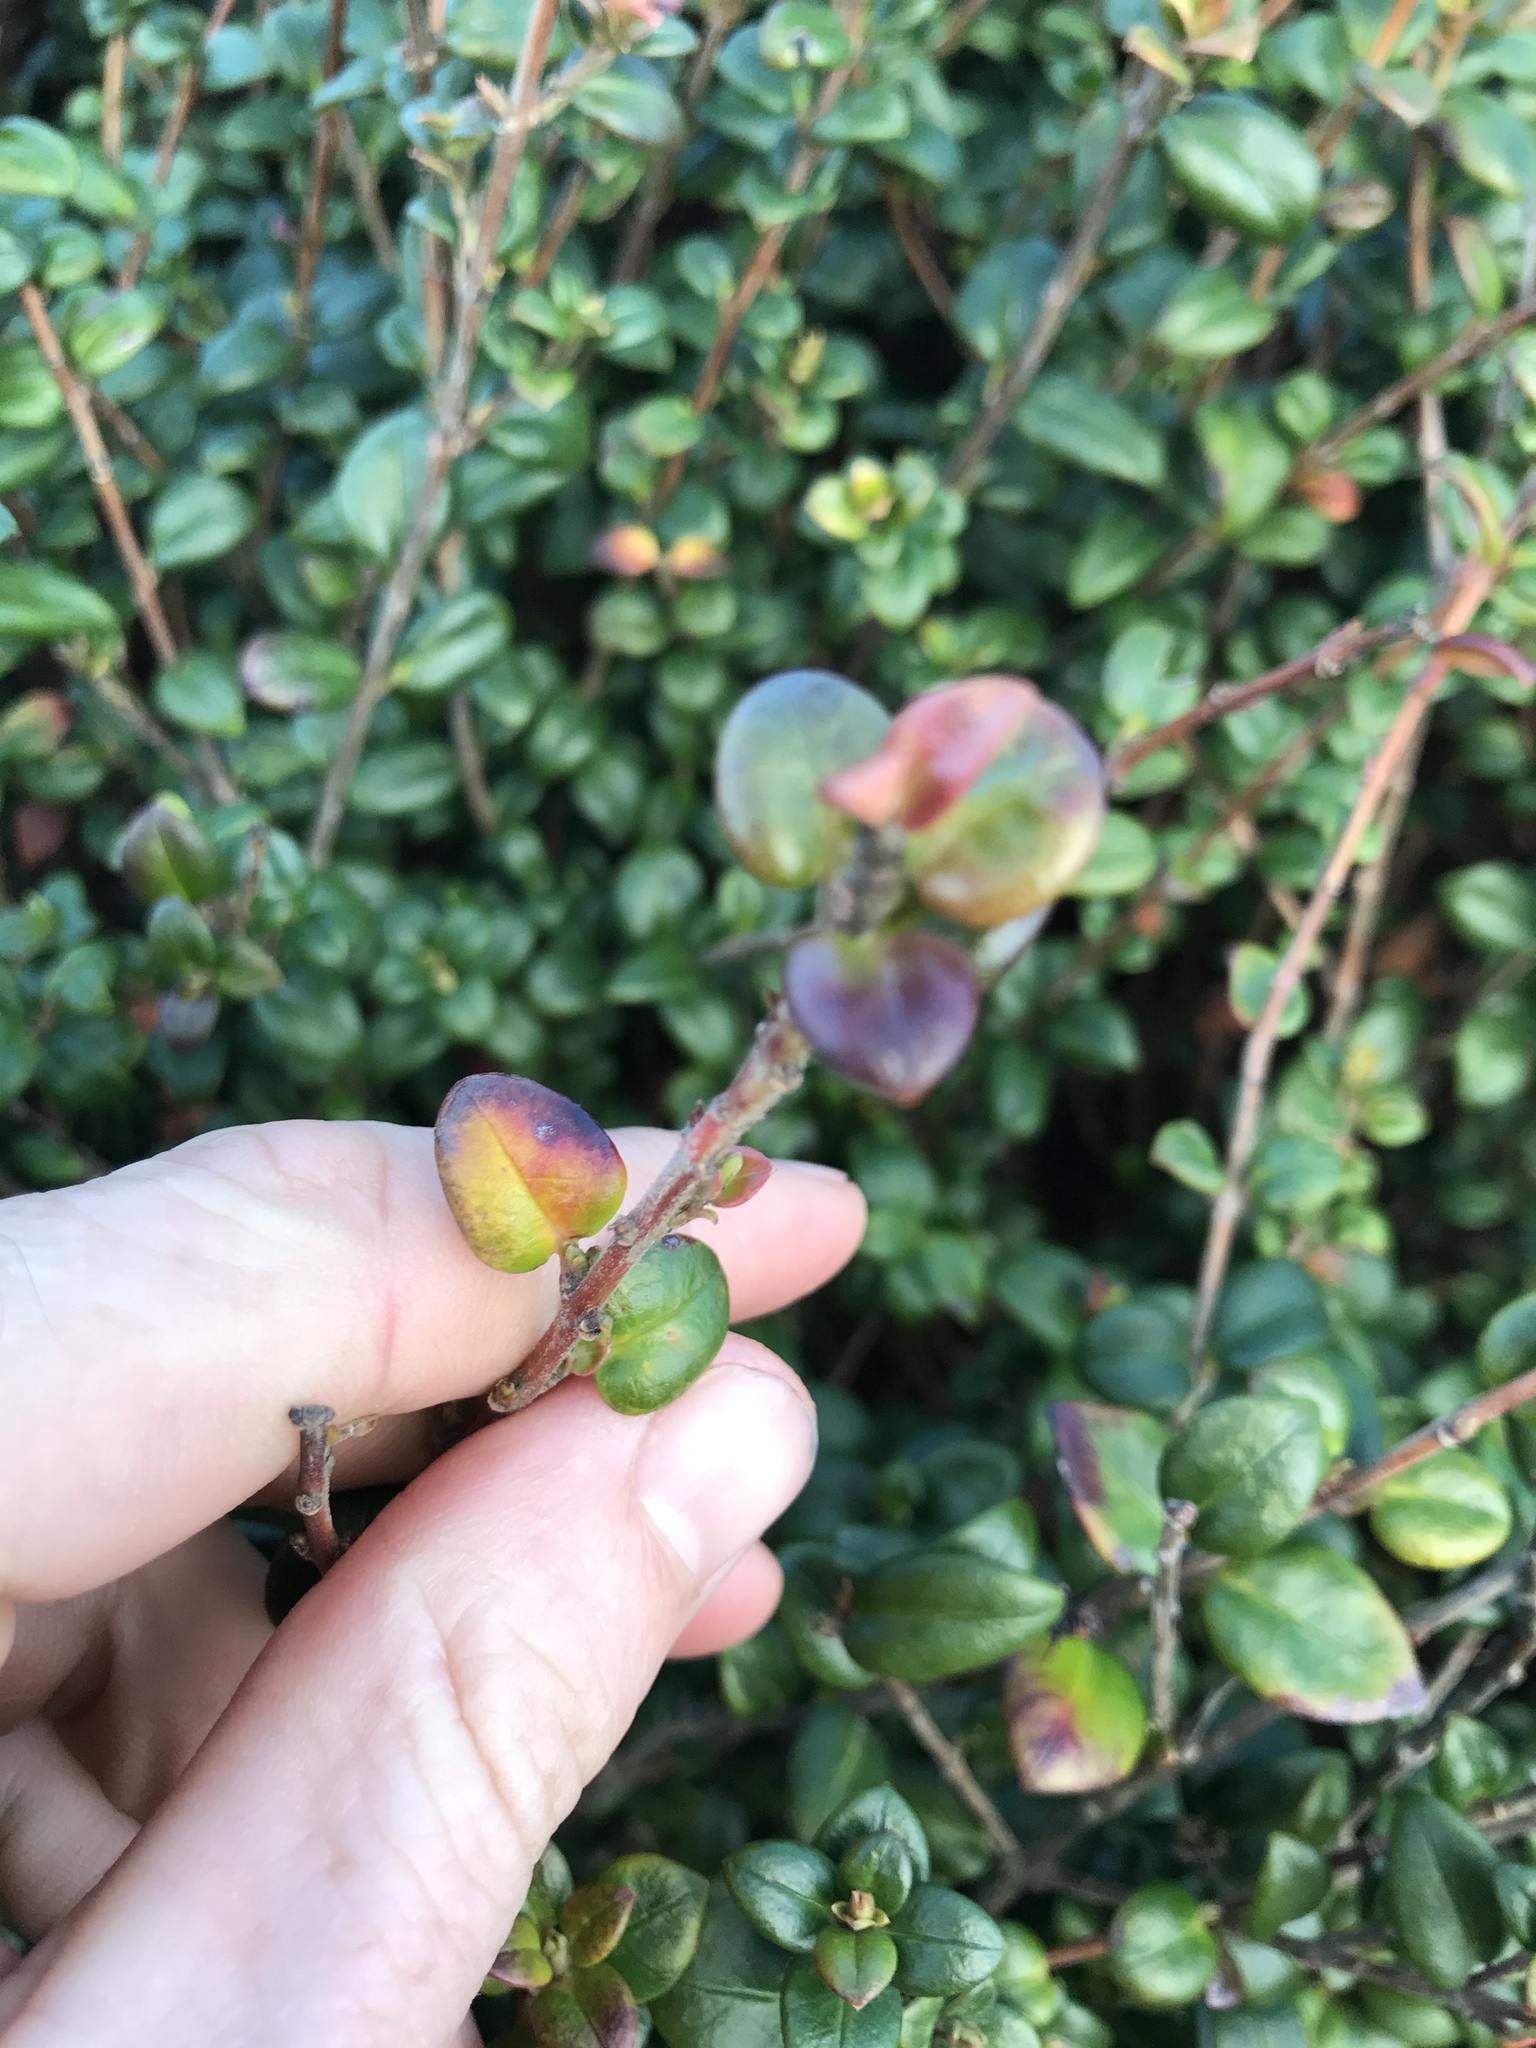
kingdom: Plantae
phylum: Tracheophyta
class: Magnoliopsida
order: Myrtales
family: Myrtaceae
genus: Ugni
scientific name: Ugni molinae
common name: Chilean-guava
